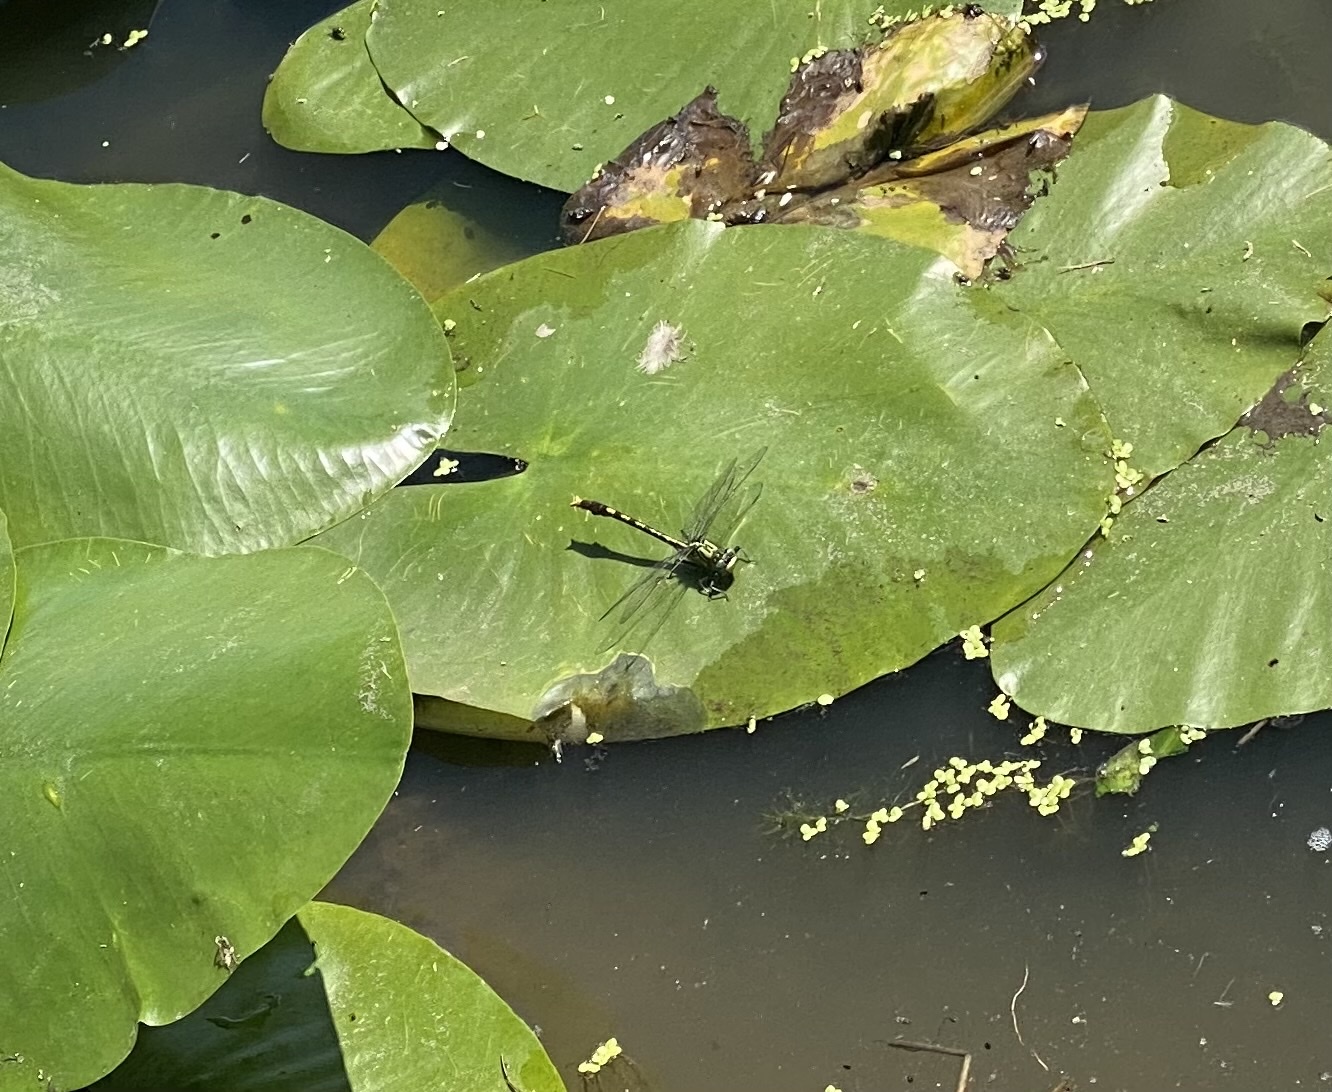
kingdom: Animalia
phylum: Arthropoda
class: Insecta
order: Odonata
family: Gomphidae
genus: Arigomphus
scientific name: Arigomphus villosipes
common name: Unicorn clubtail
